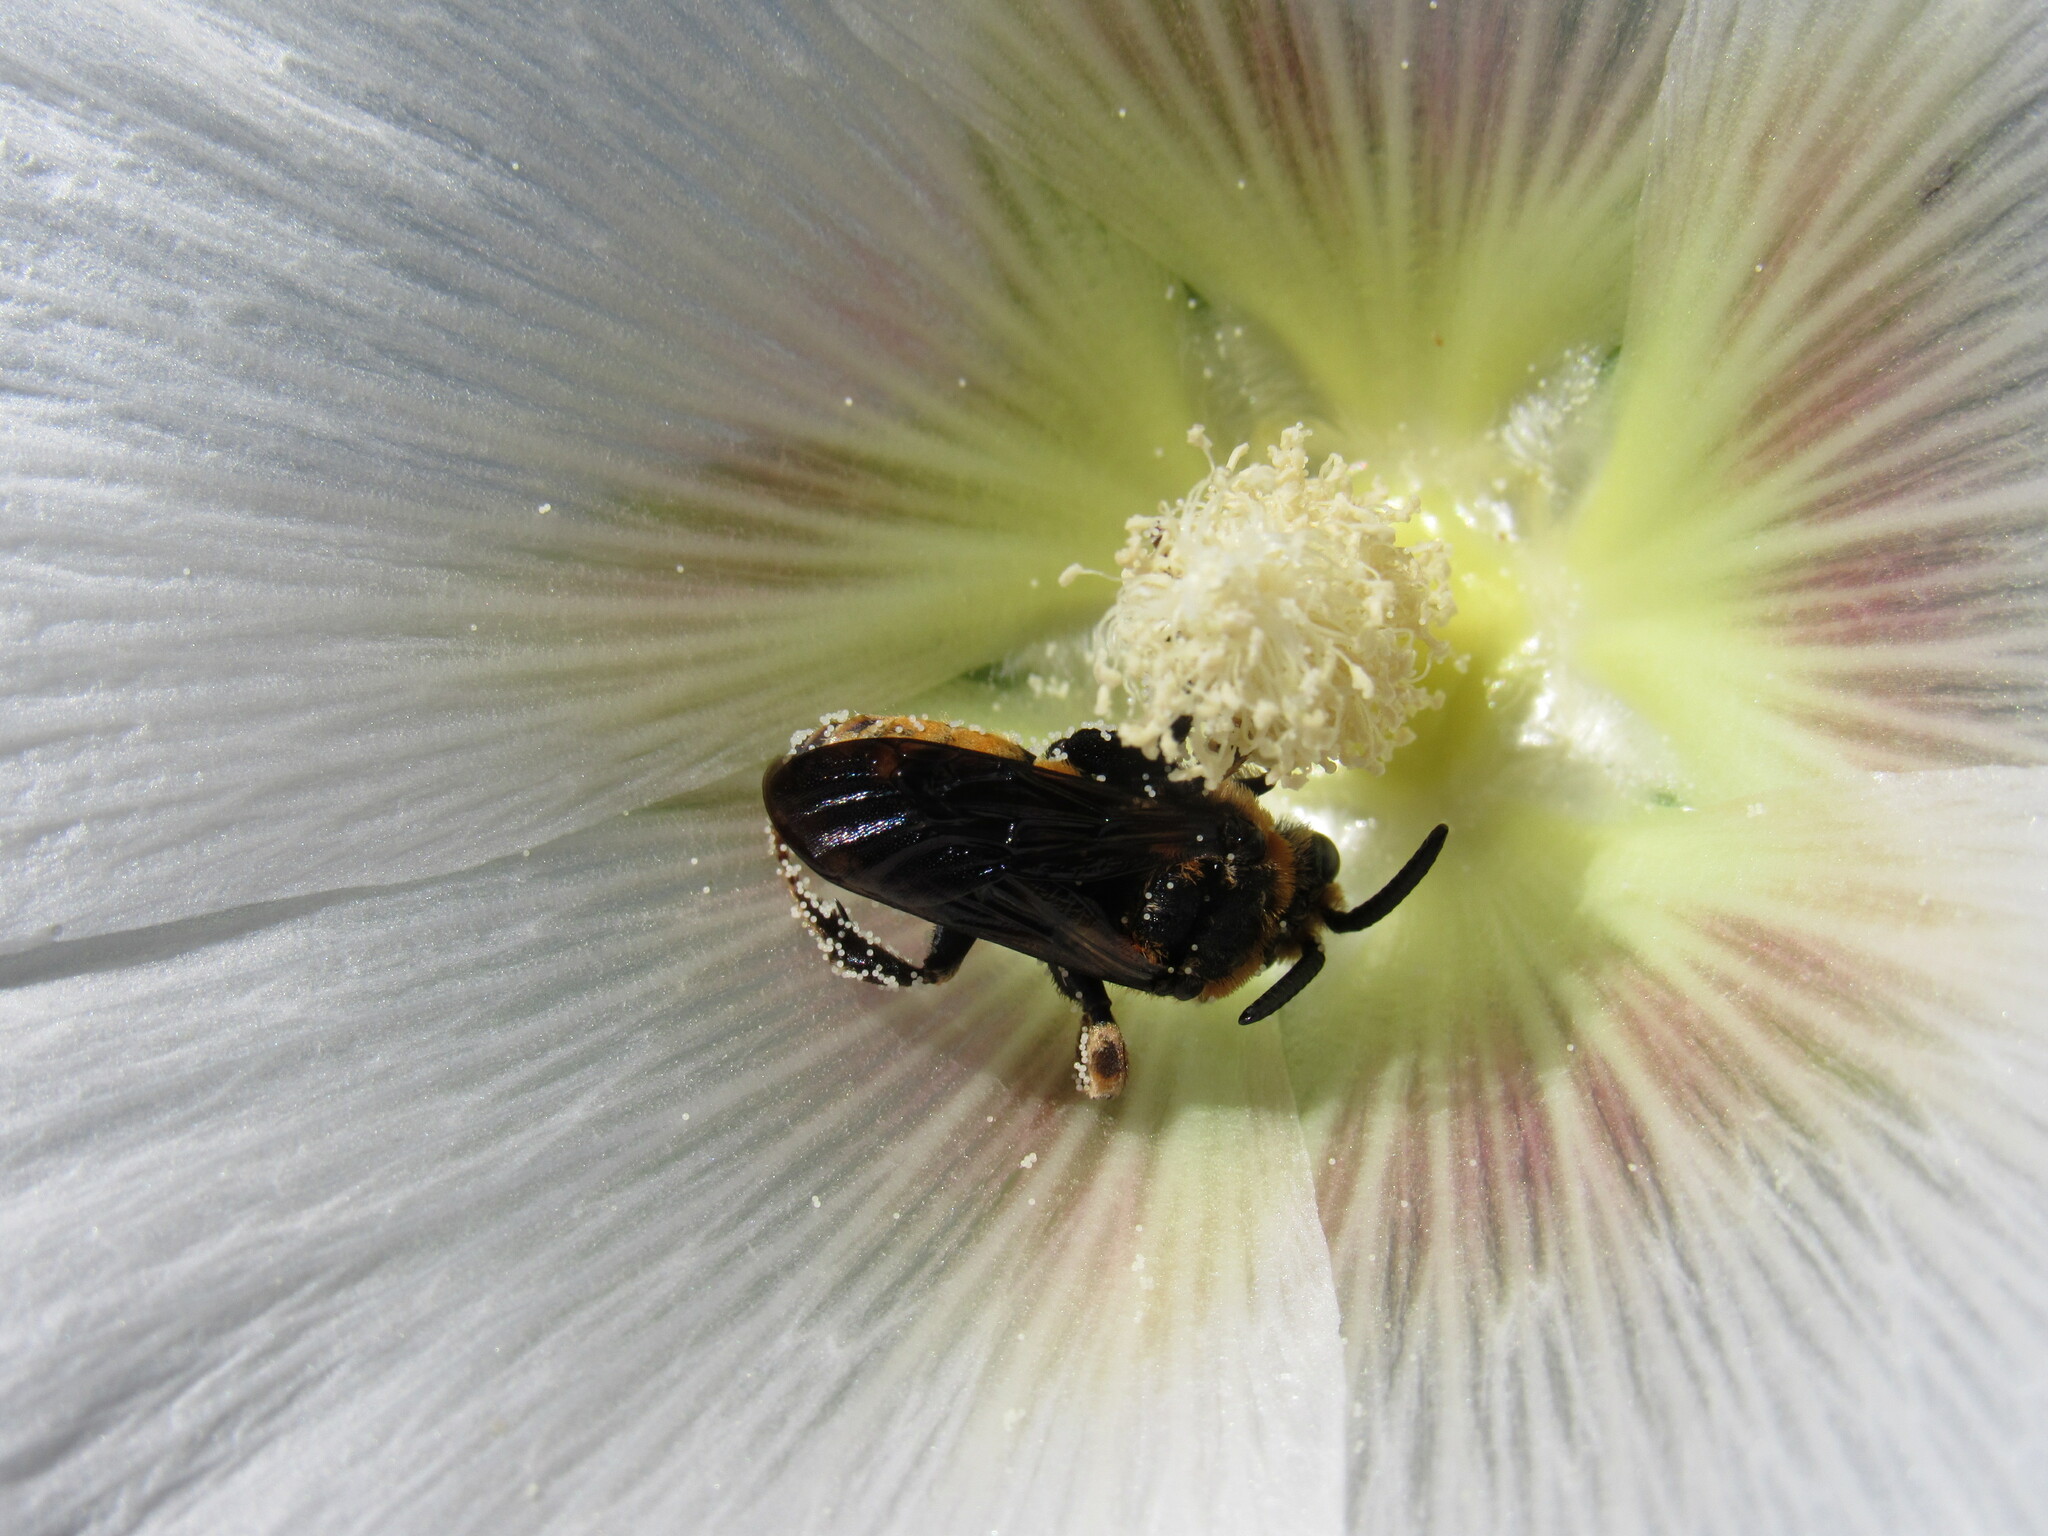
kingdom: Animalia
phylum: Arthropoda
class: Insecta
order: Hymenoptera
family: Apidae
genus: Xeromelecta
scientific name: Xeromelecta interrupta
